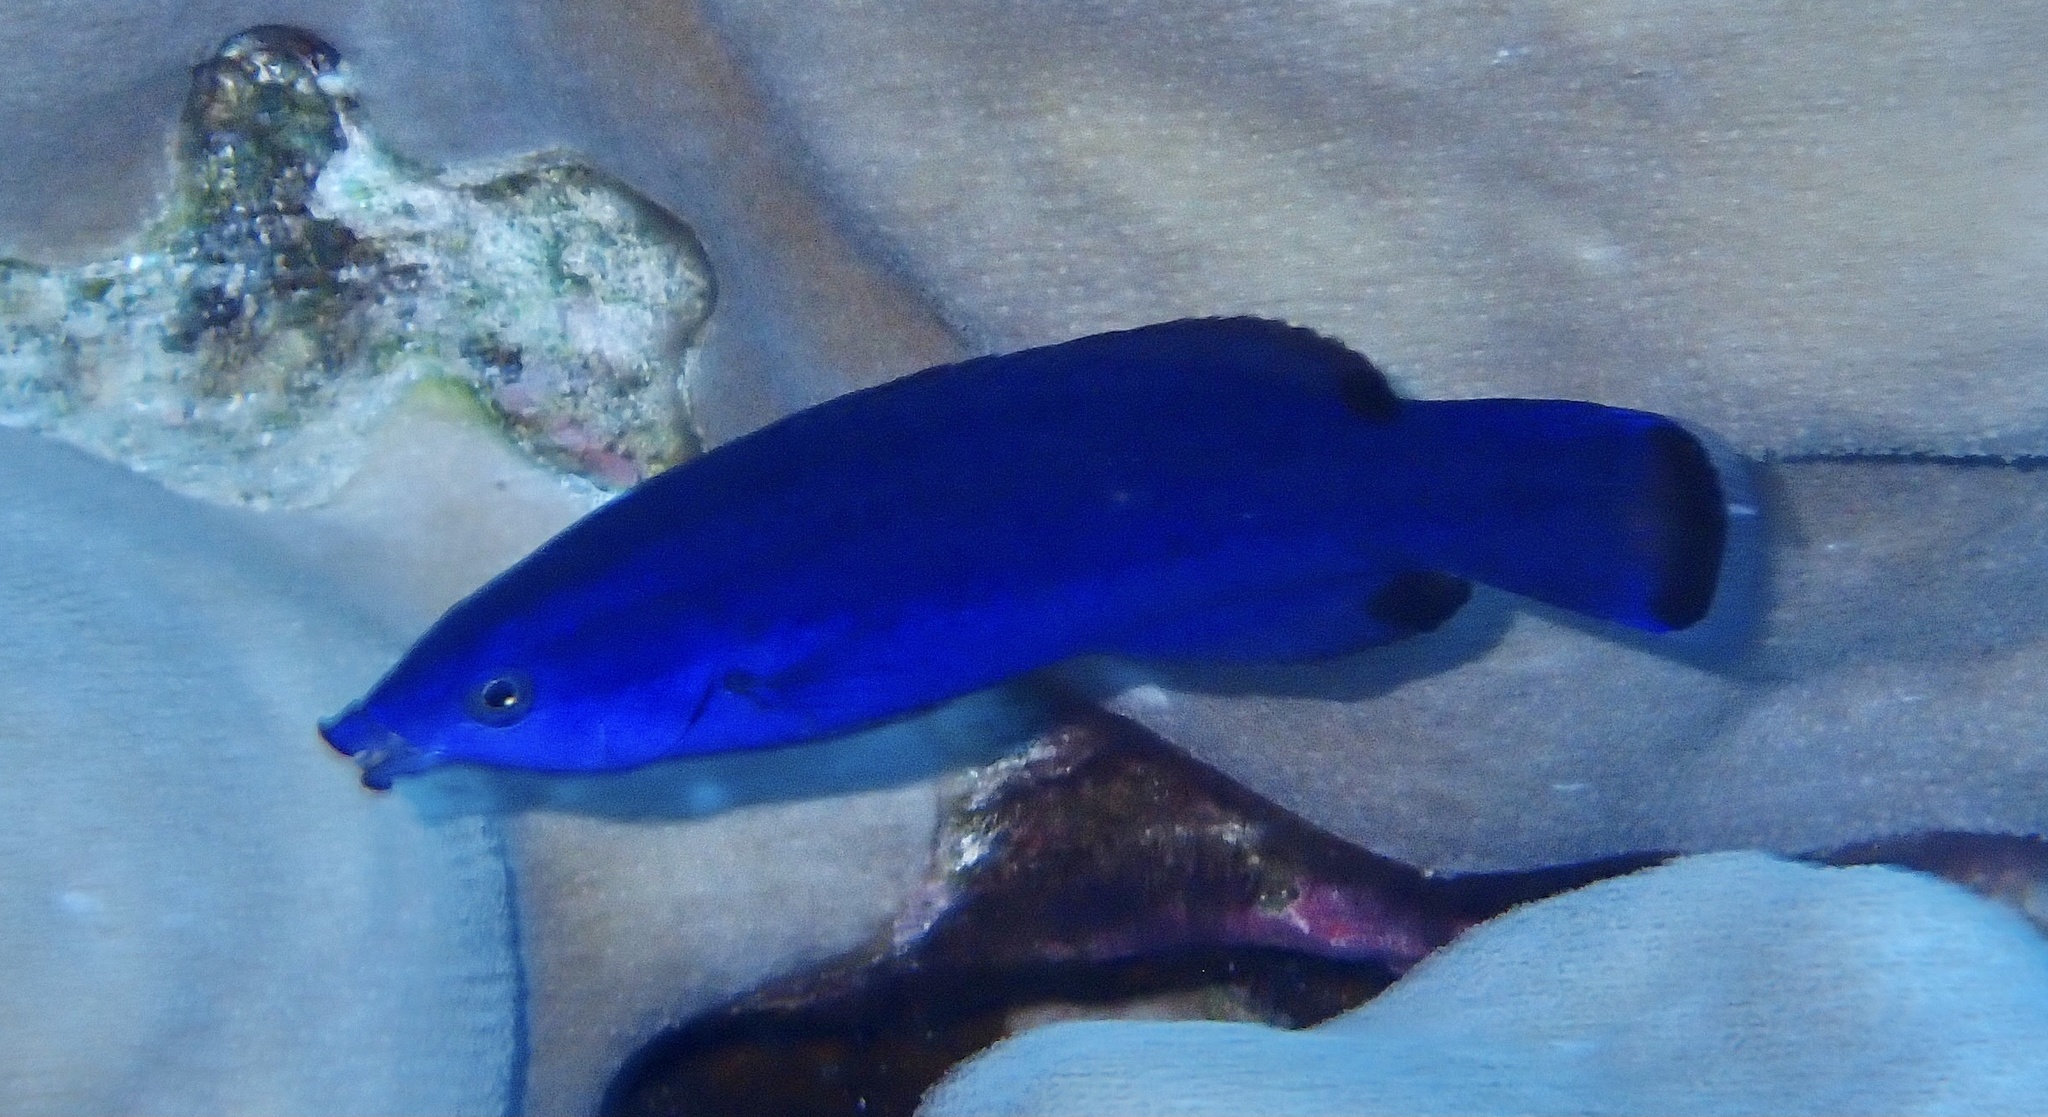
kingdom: Animalia
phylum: Chordata
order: Perciformes
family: Labridae
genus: Larabicus
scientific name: Larabicus quadrilineatus
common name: Fourline wrasse
